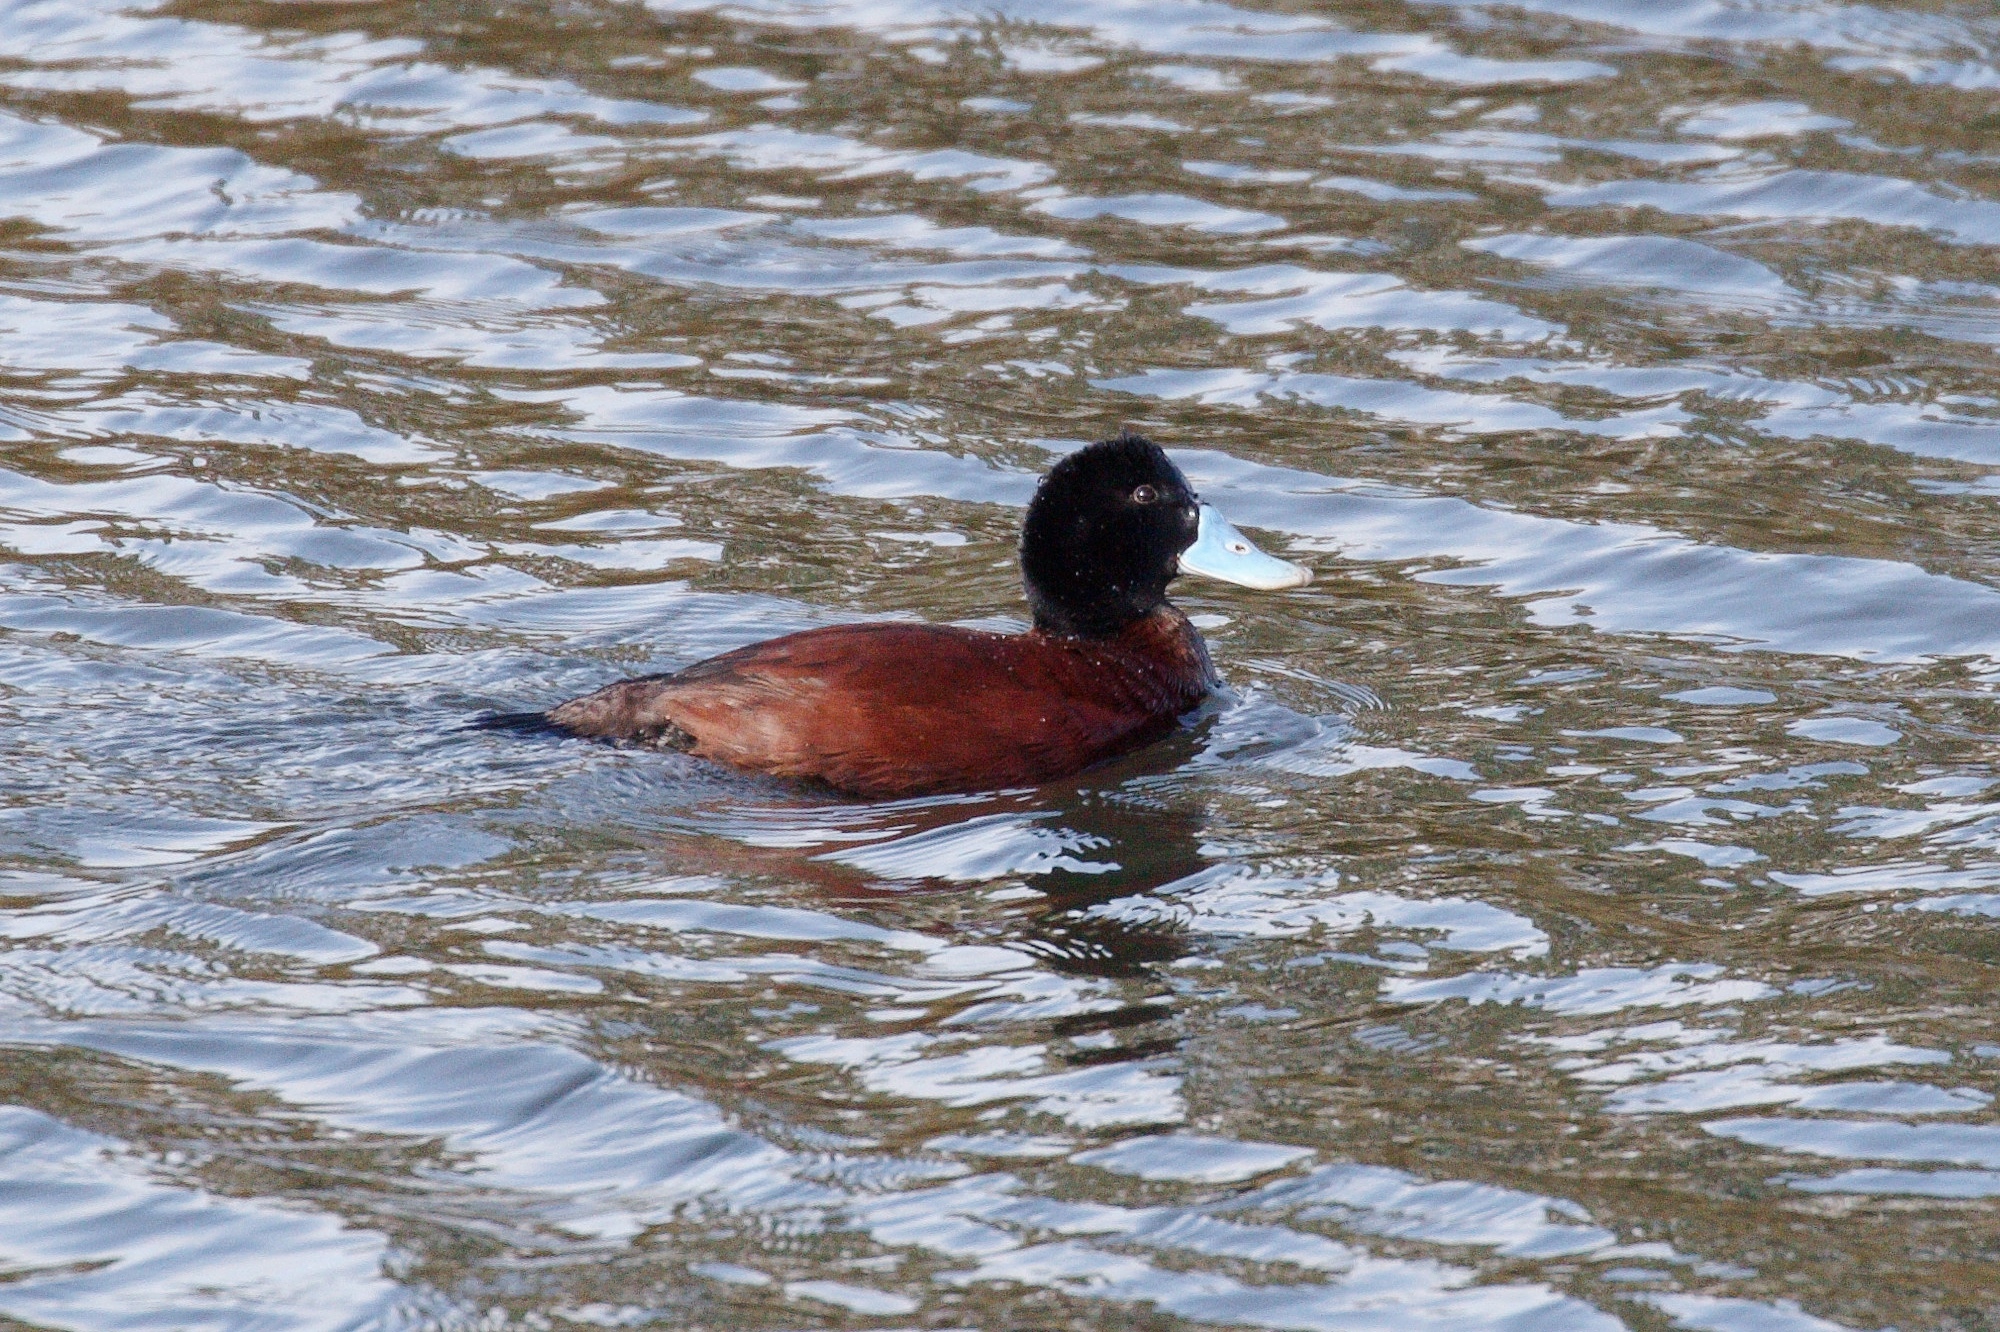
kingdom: Animalia
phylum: Chordata
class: Aves
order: Anseriformes
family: Anatidae
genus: Oxyura
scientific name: Oxyura australis
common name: Blue-billed duck
